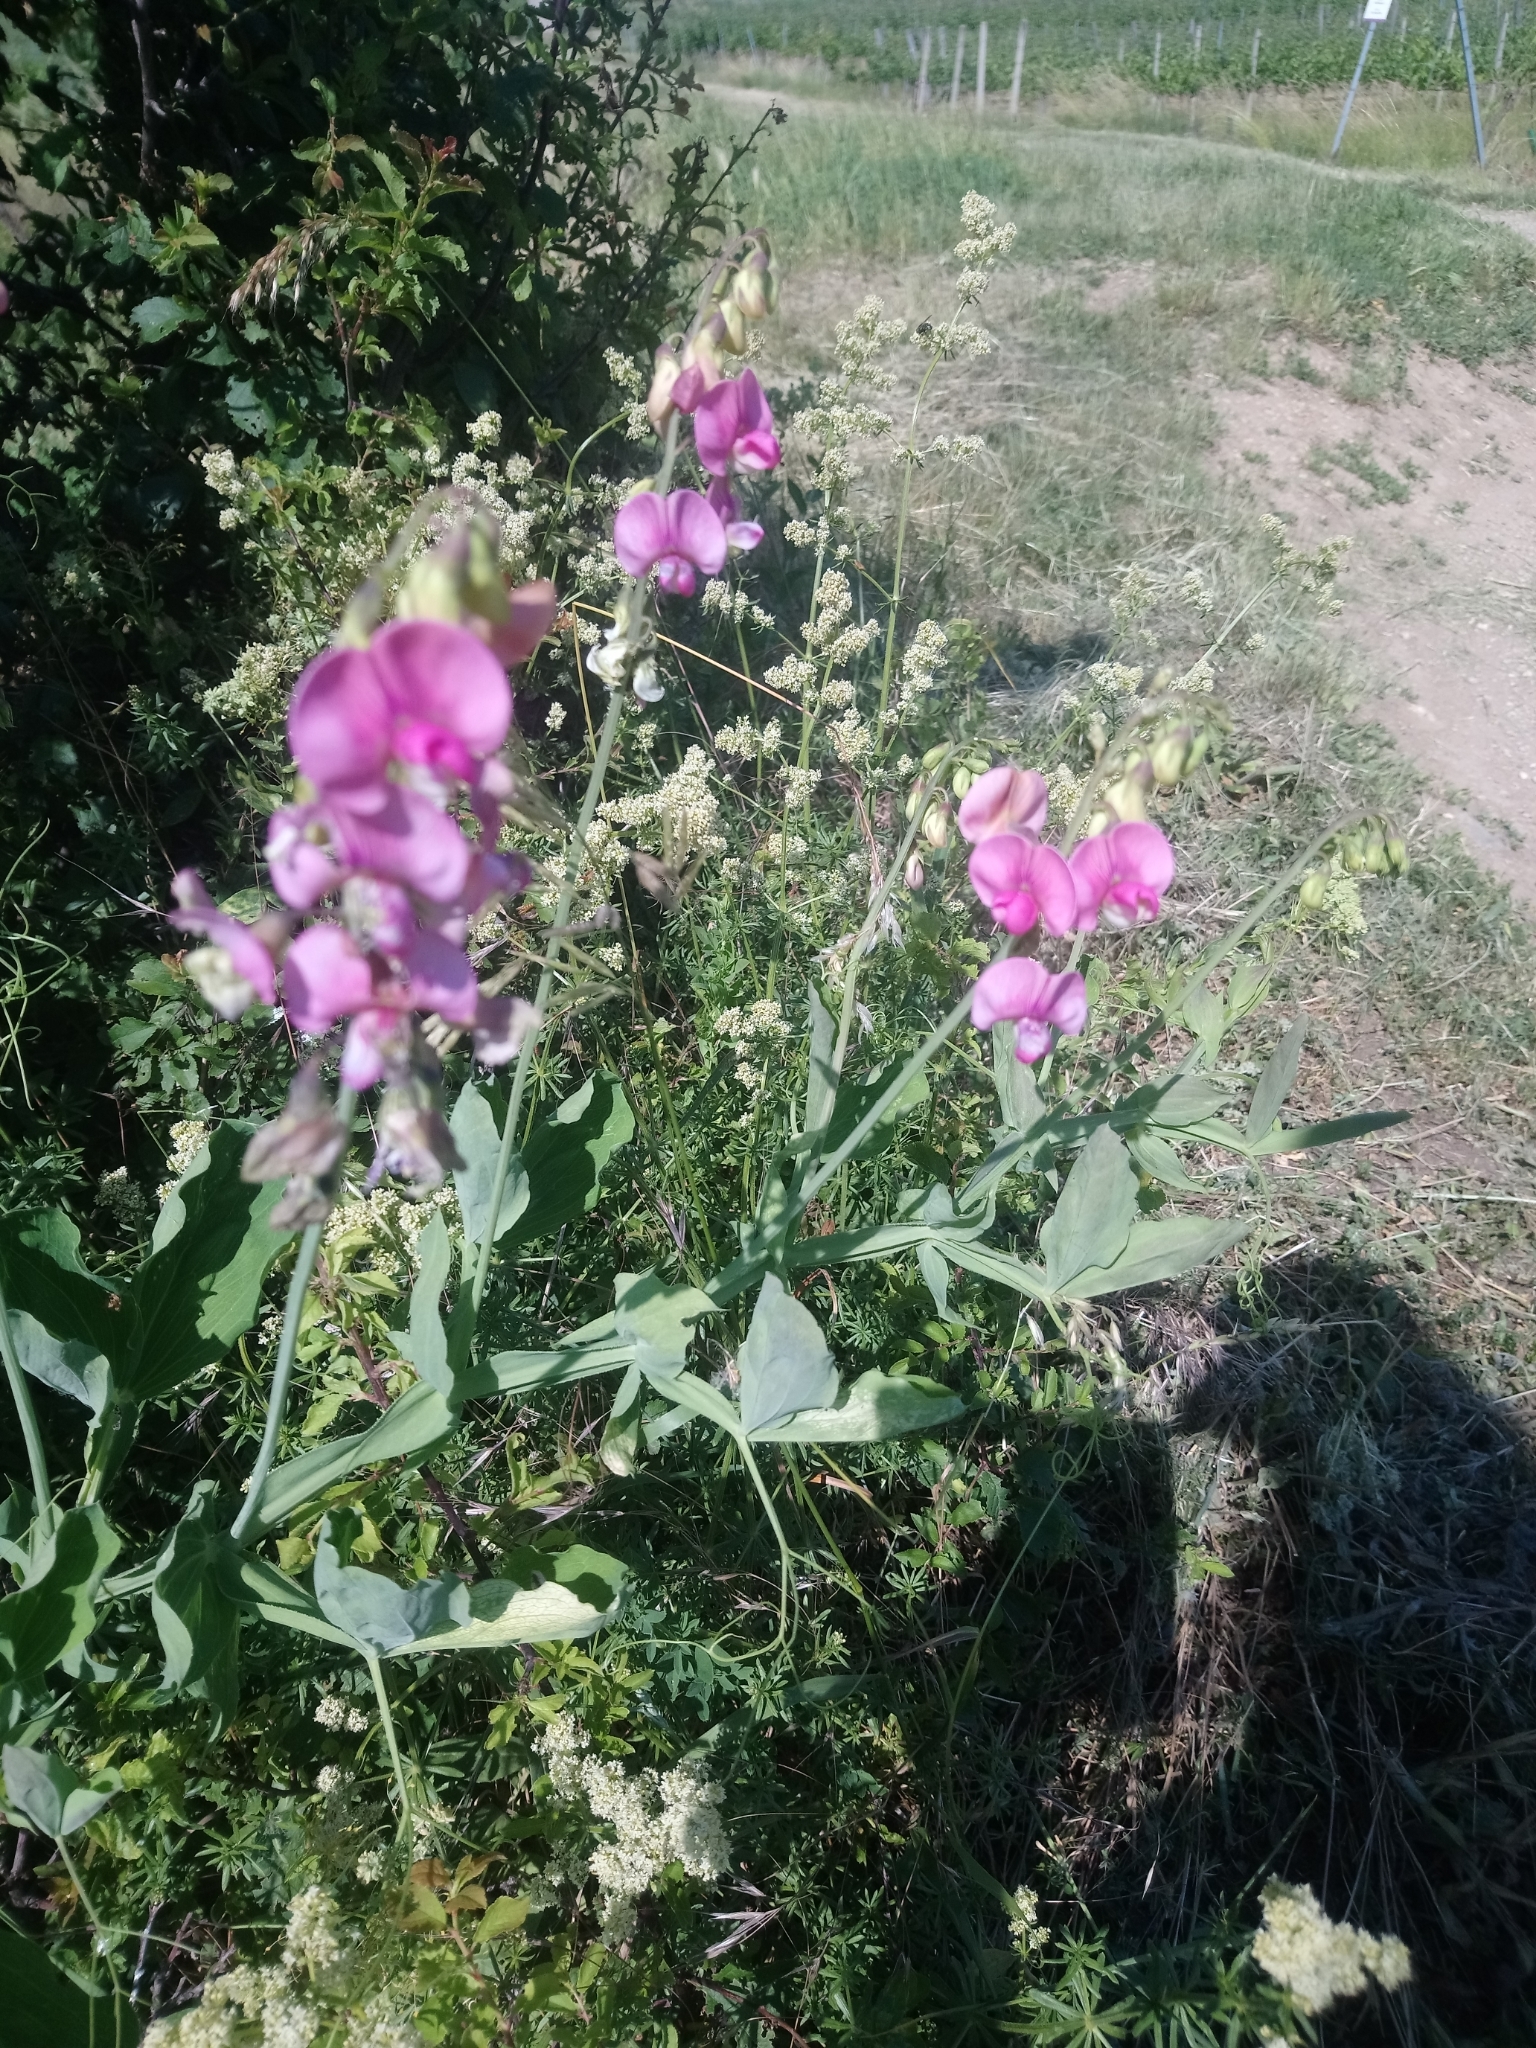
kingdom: Plantae
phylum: Tracheophyta
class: Magnoliopsida
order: Fabales
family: Fabaceae
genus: Lathyrus
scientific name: Lathyrus latifolius
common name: Perennial pea
